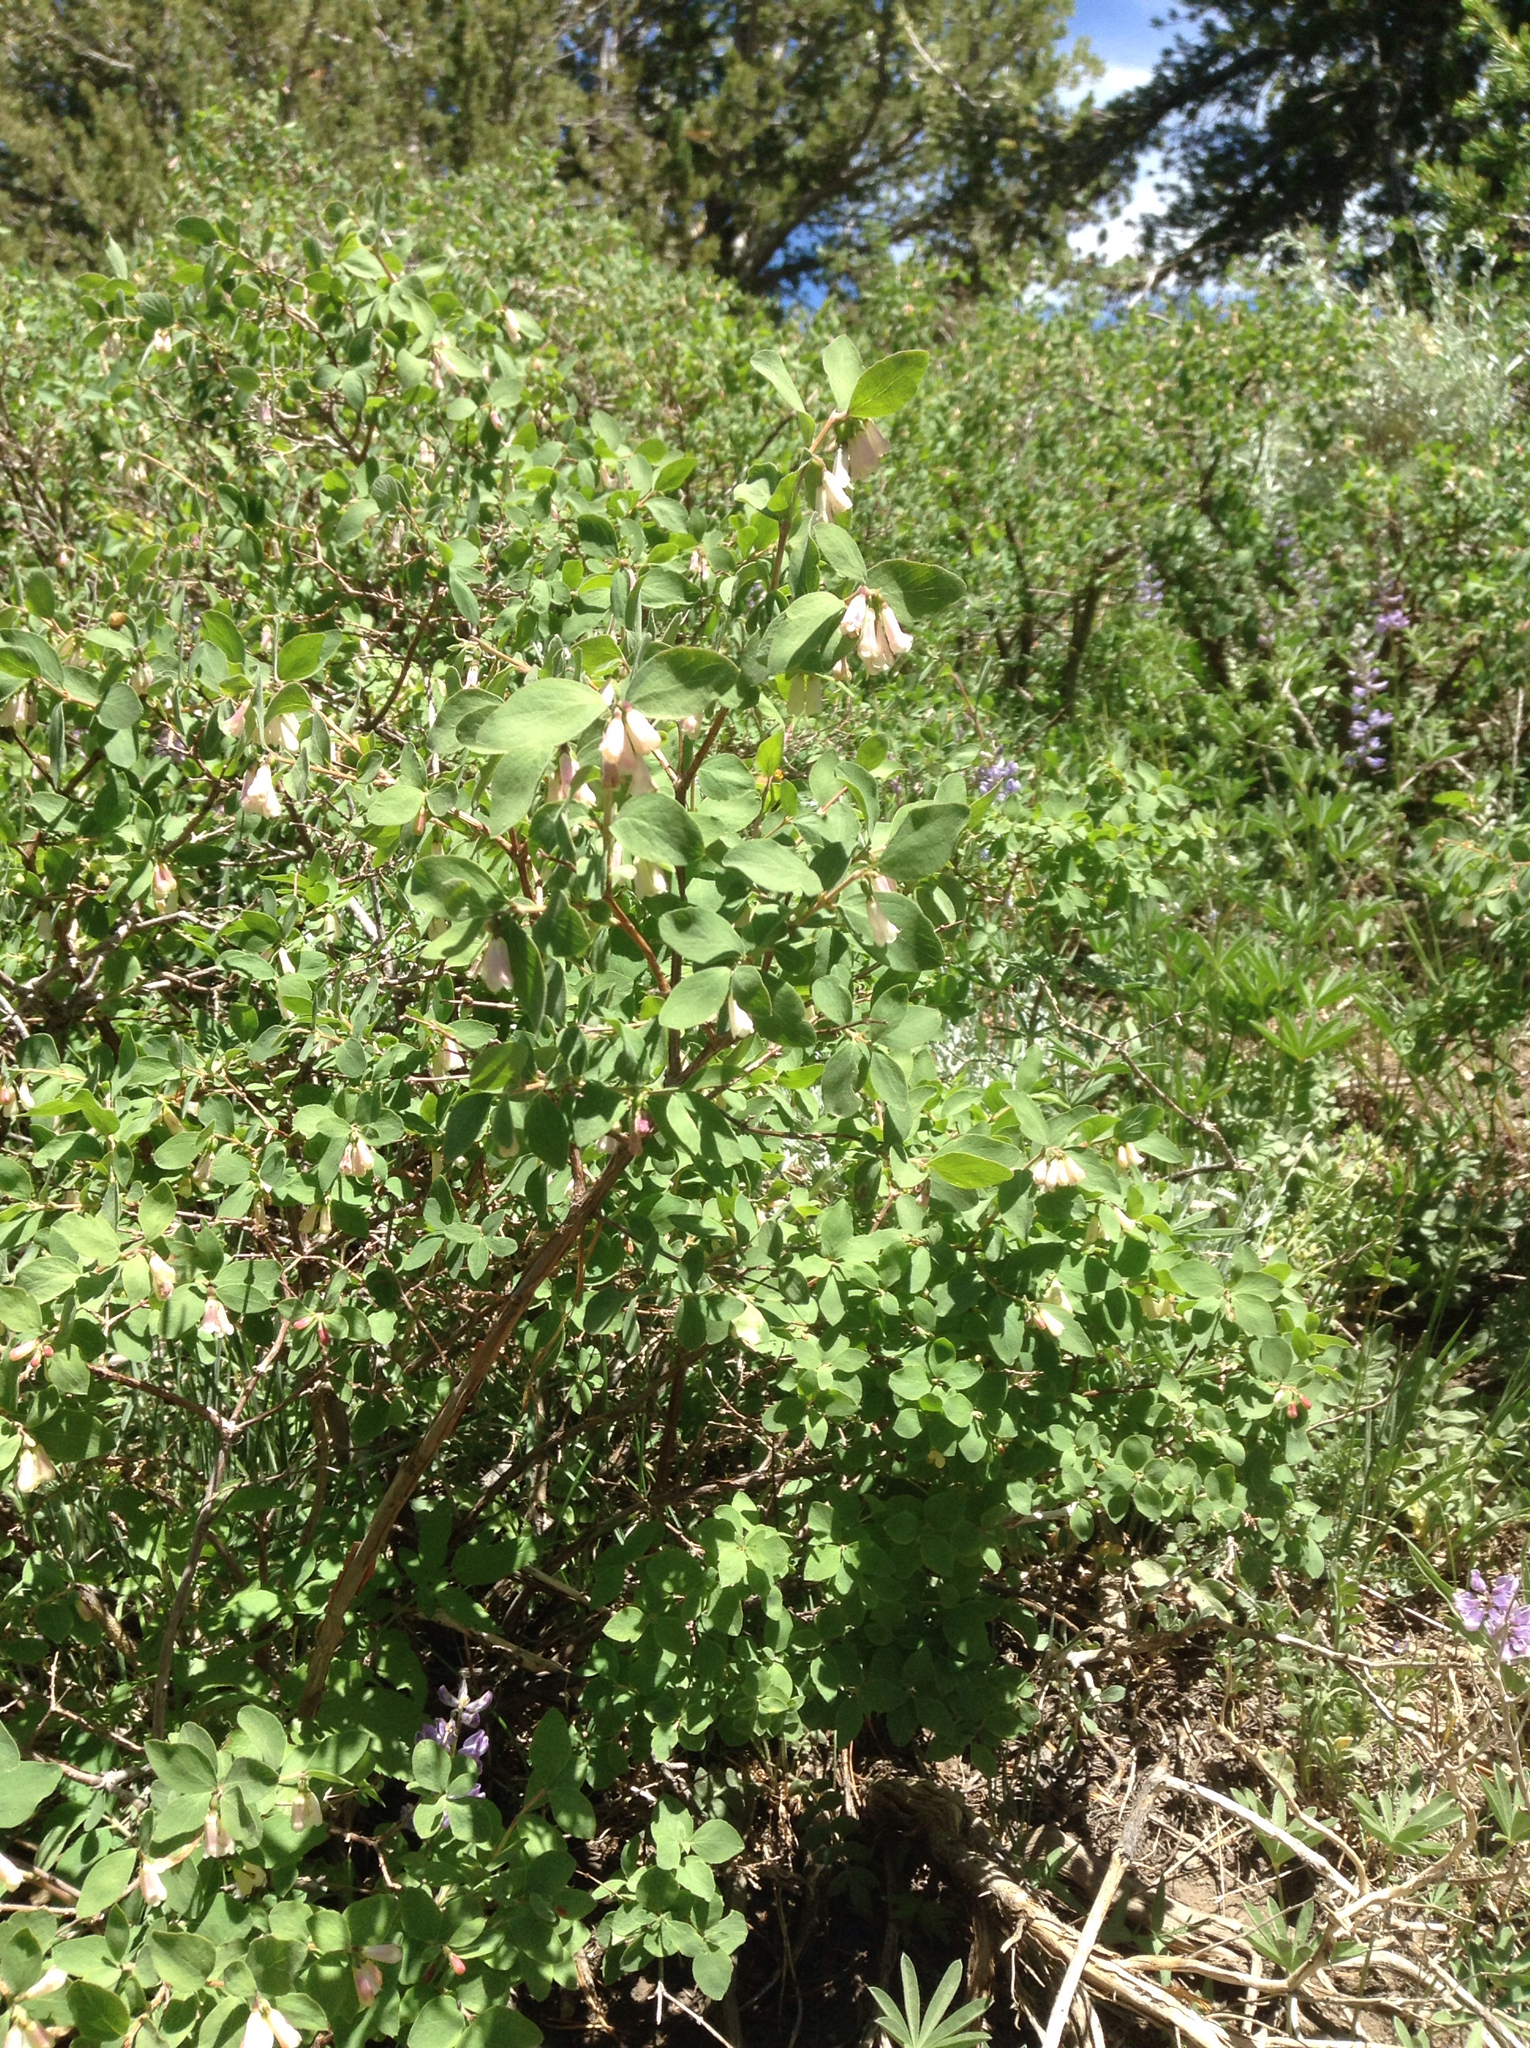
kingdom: Plantae
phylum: Tracheophyta
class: Magnoliopsida
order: Dipsacales
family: Caprifoliaceae
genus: Symphoricarpos
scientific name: Symphoricarpos rotundifolius
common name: Round-leaved snowberry
